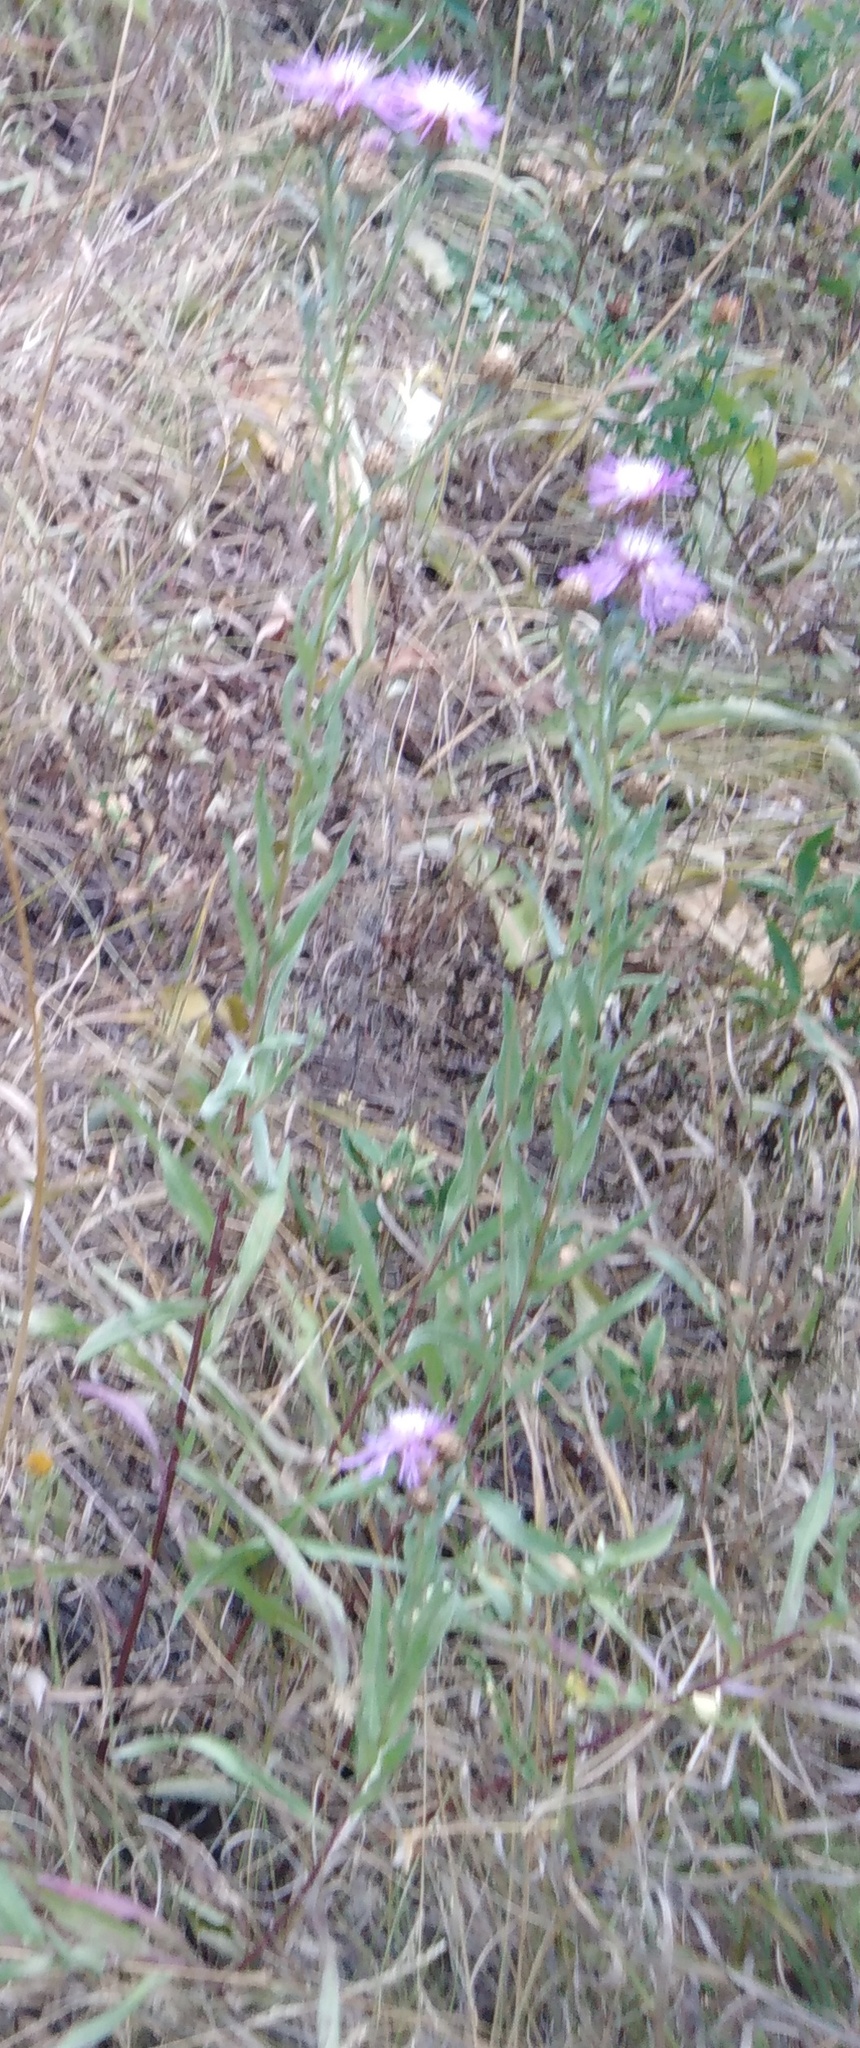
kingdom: Plantae
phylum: Tracheophyta
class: Magnoliopsida
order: Asterales
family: Asteraceae
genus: Centaurea
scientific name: Centaurea jacea
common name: Brown knapweed
